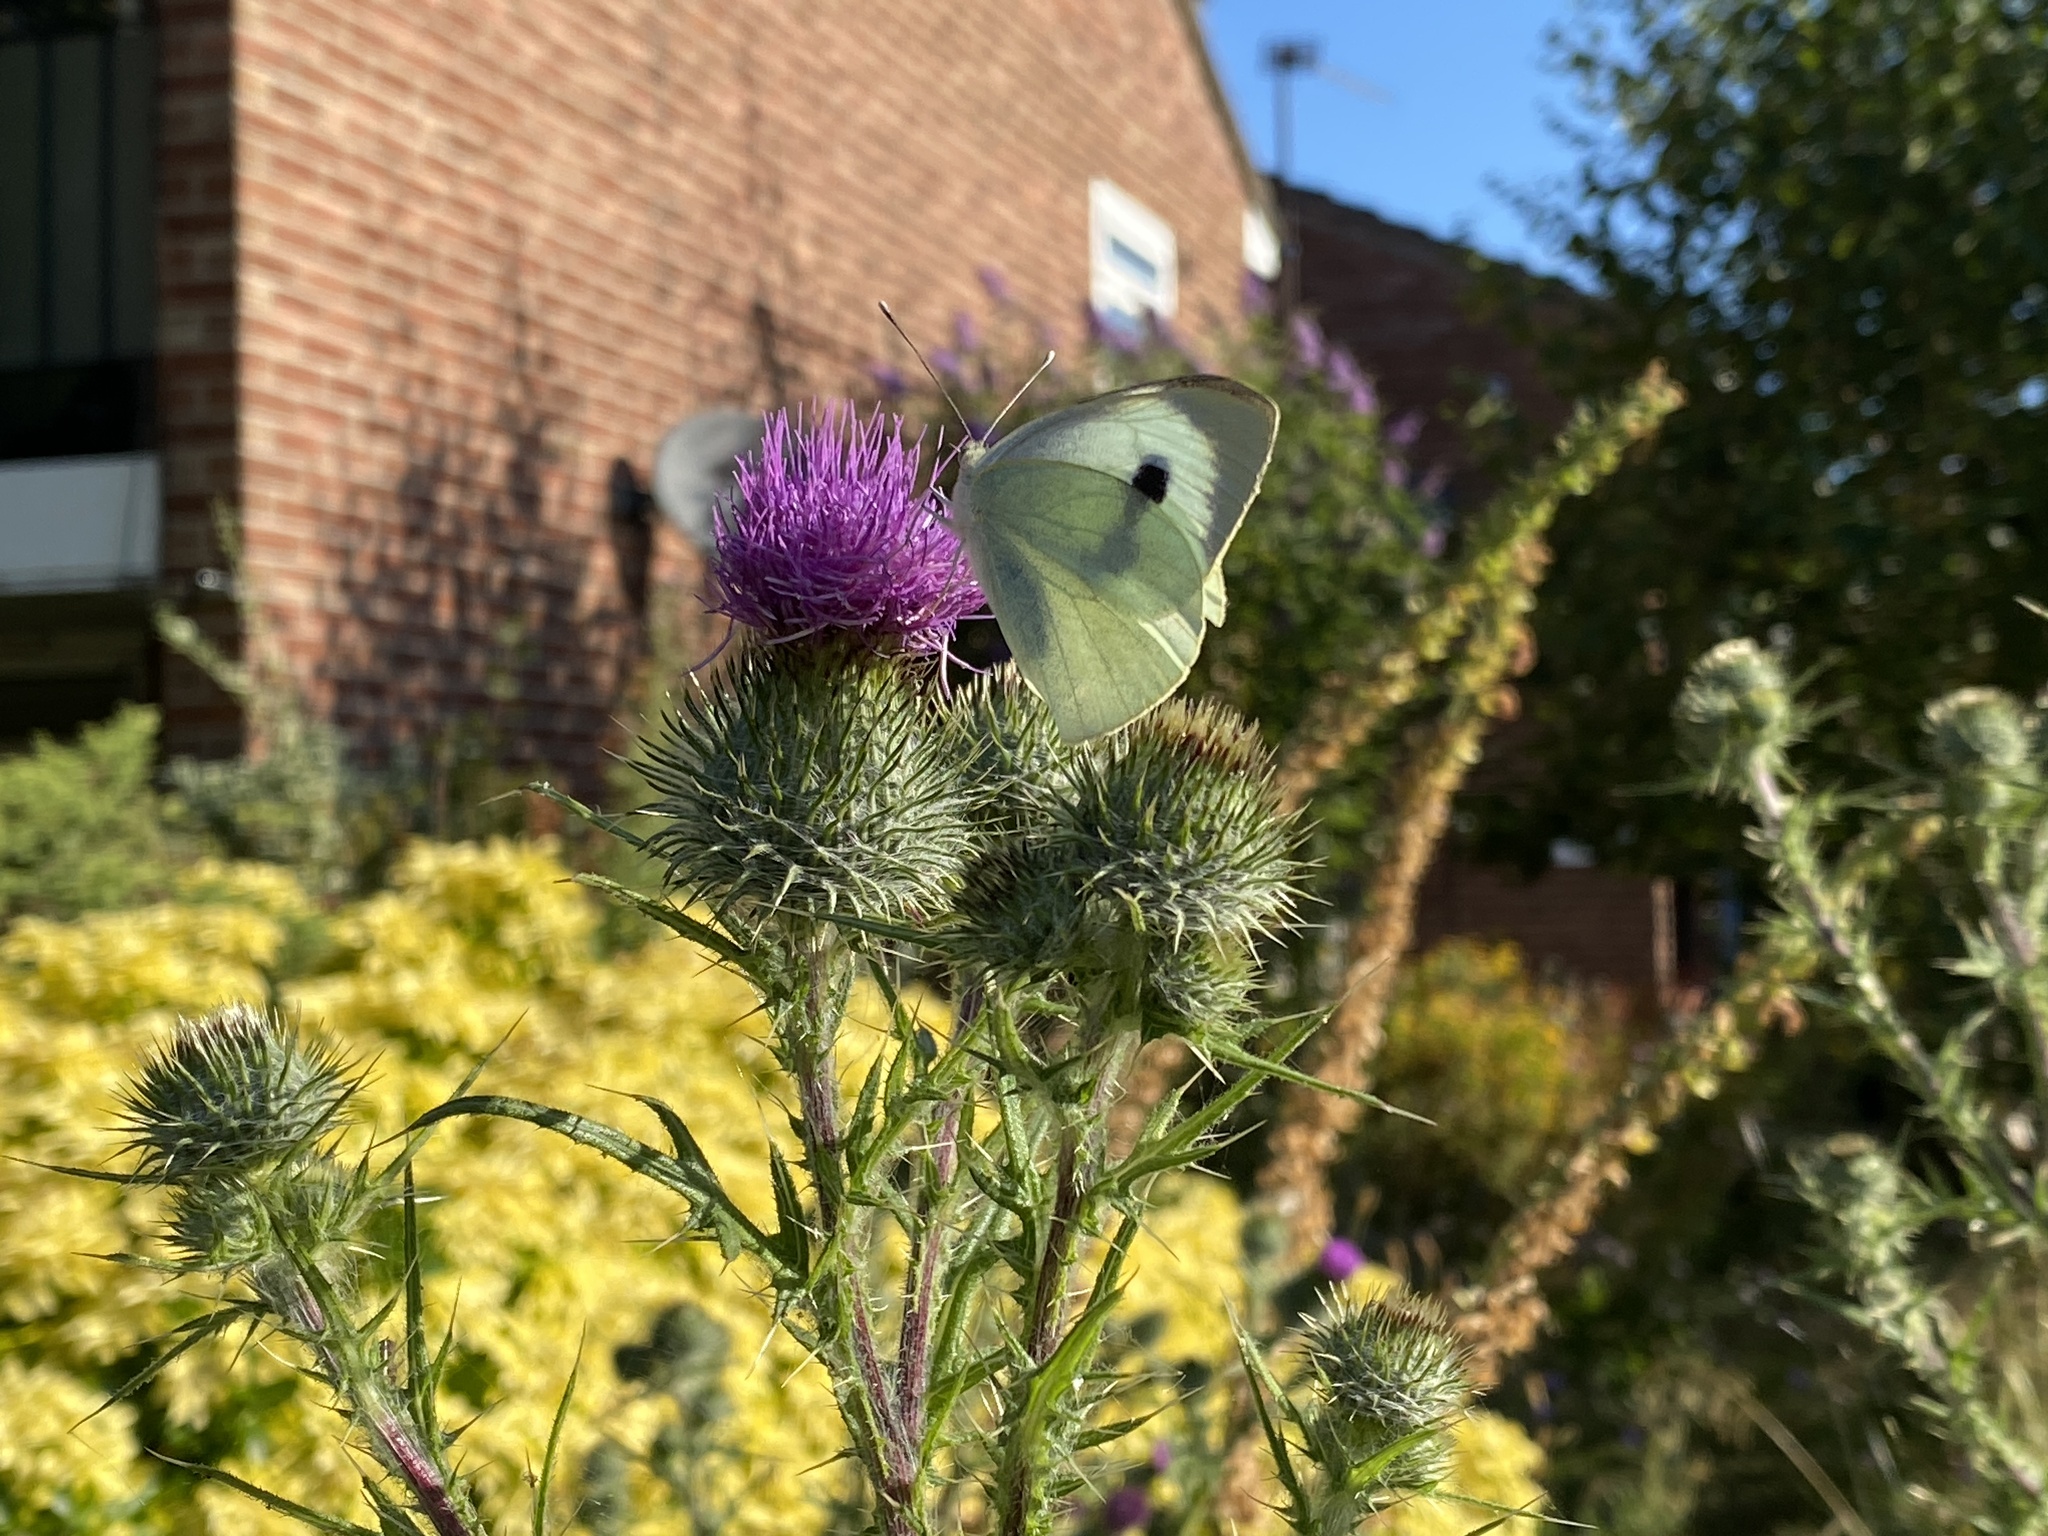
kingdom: Animalia
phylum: Arthropoda
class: Insecta
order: Lepidoptera
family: Pieridae
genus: Pieris
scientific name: Pieris brassicae
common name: Large white
